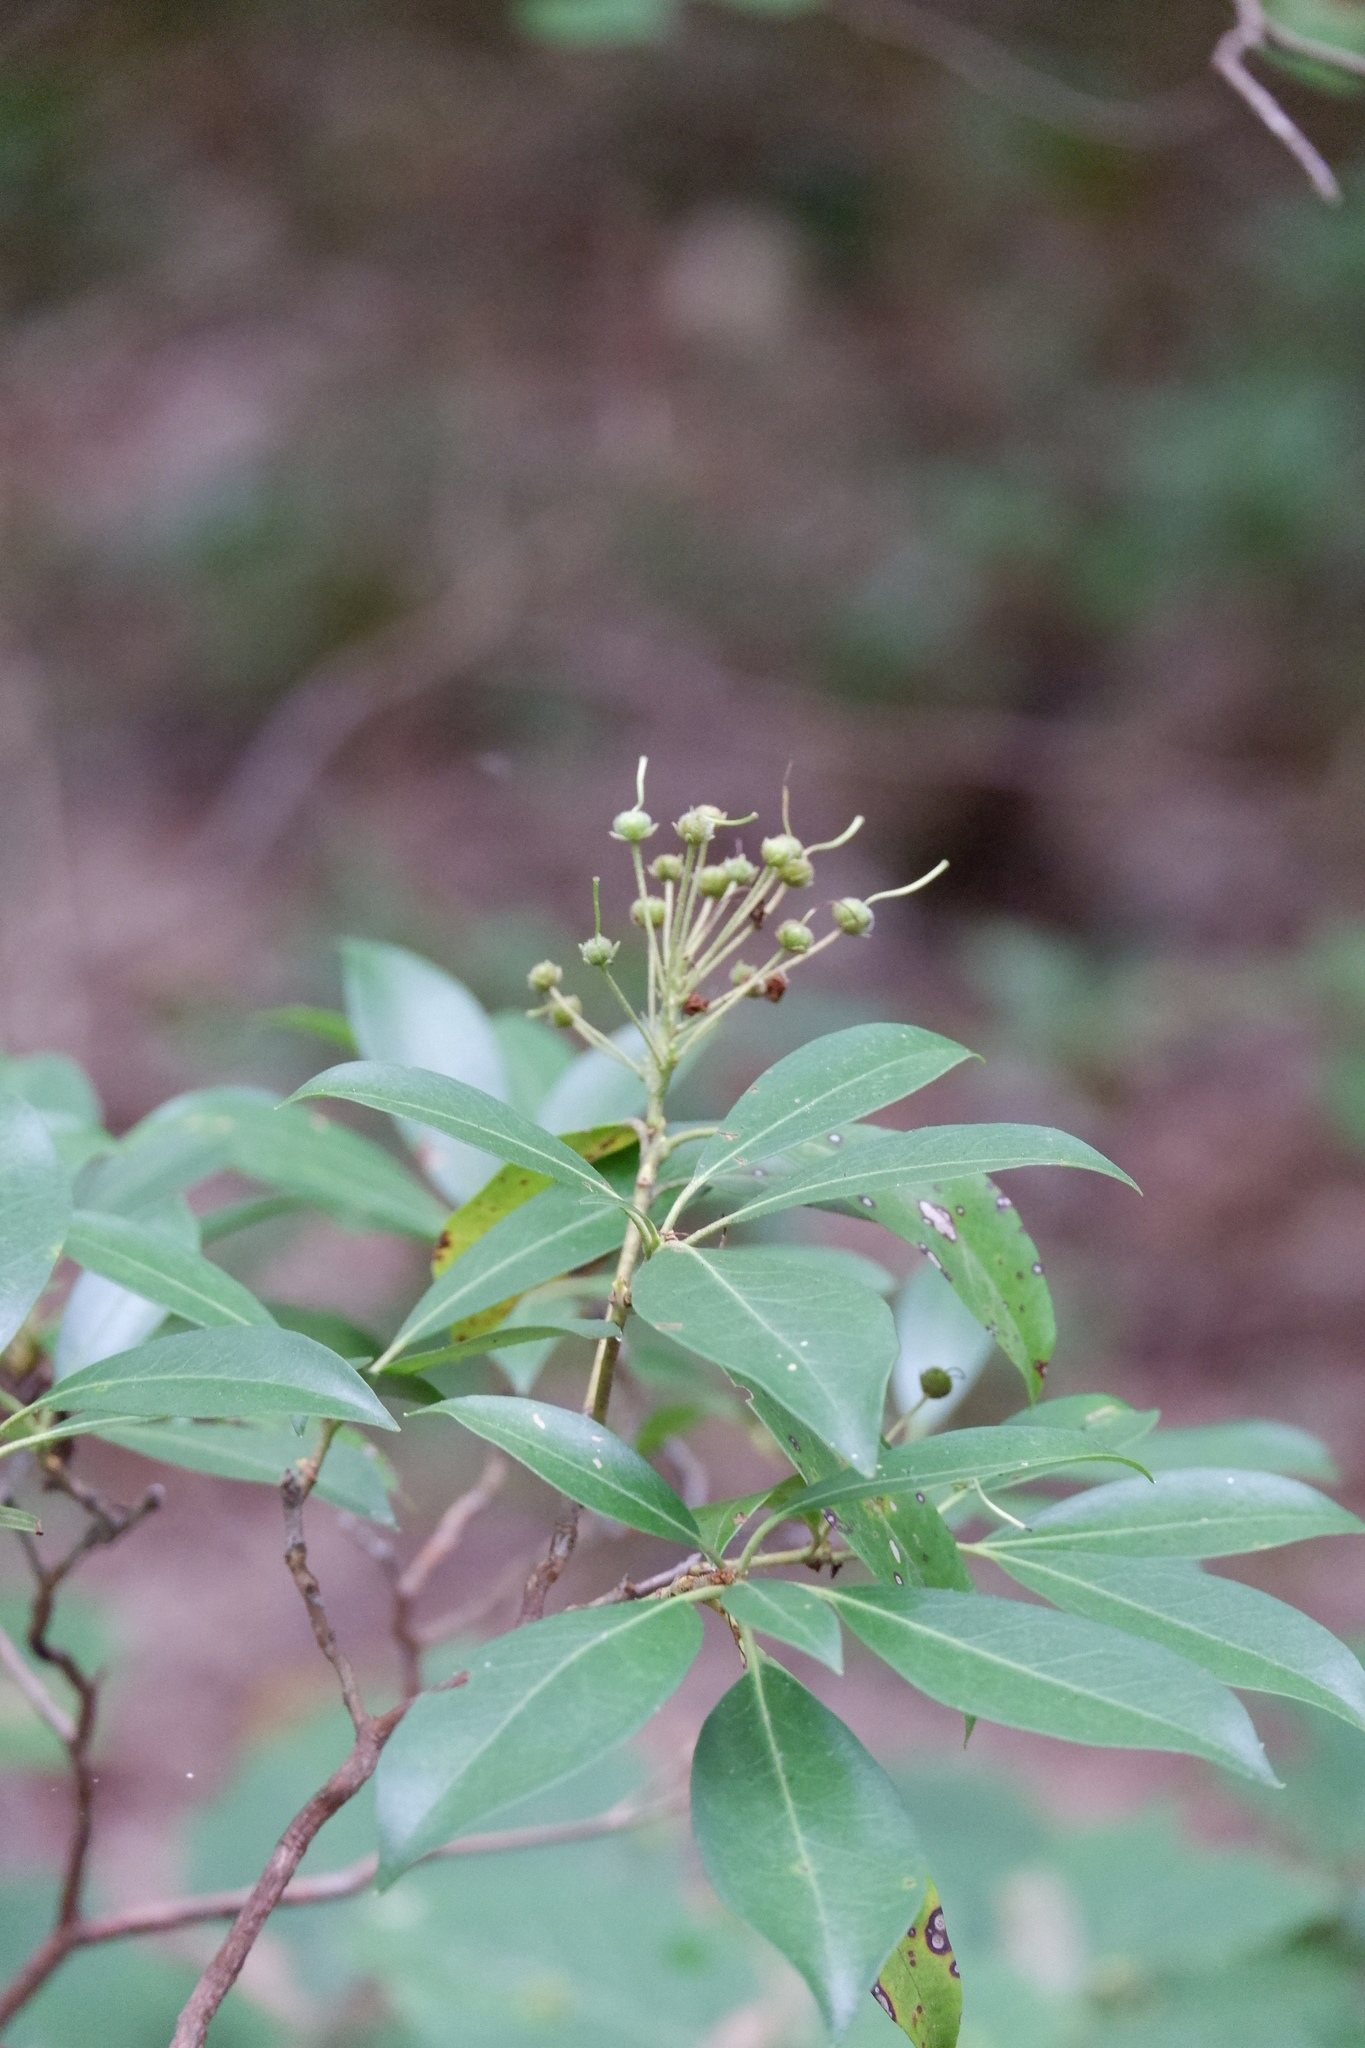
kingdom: Plantae
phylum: Tracheophyta
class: Magnoliopsida
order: Ericales
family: Ericaceae
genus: Kalmia
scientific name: Kalmia latifolia
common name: Mountain-laurel
